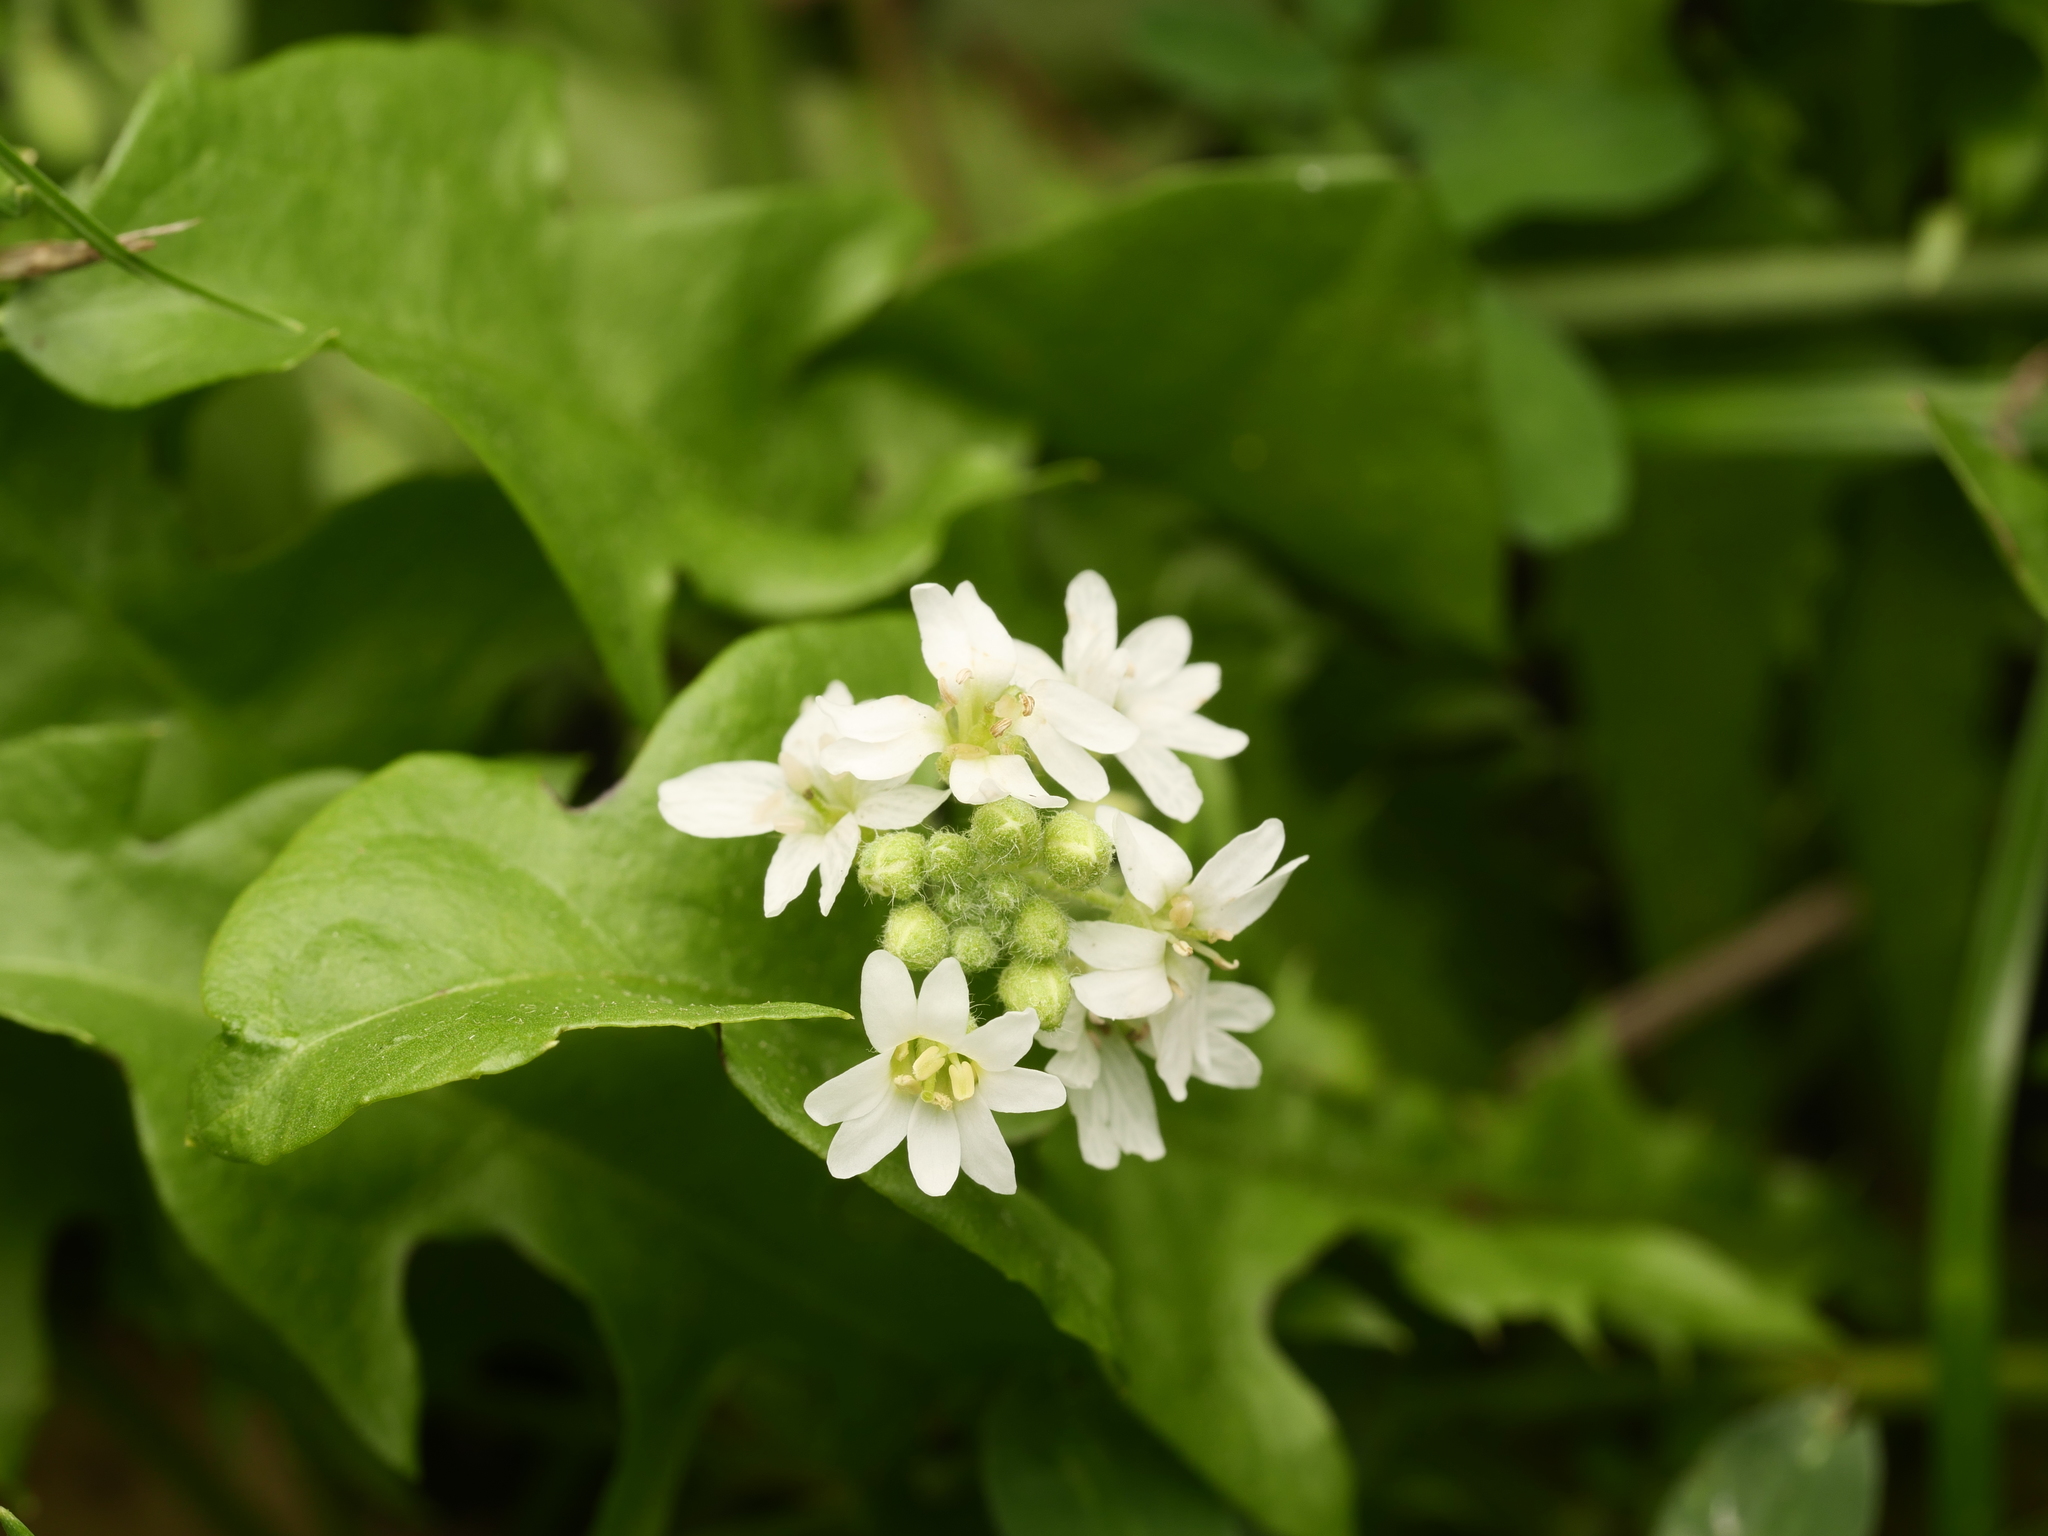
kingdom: Plantae
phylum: Tracheophyta
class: Magnoliopsida
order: Brassicales
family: Brassicaceae
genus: Berteroa
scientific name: Berteroa incana
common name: Hoary alison
